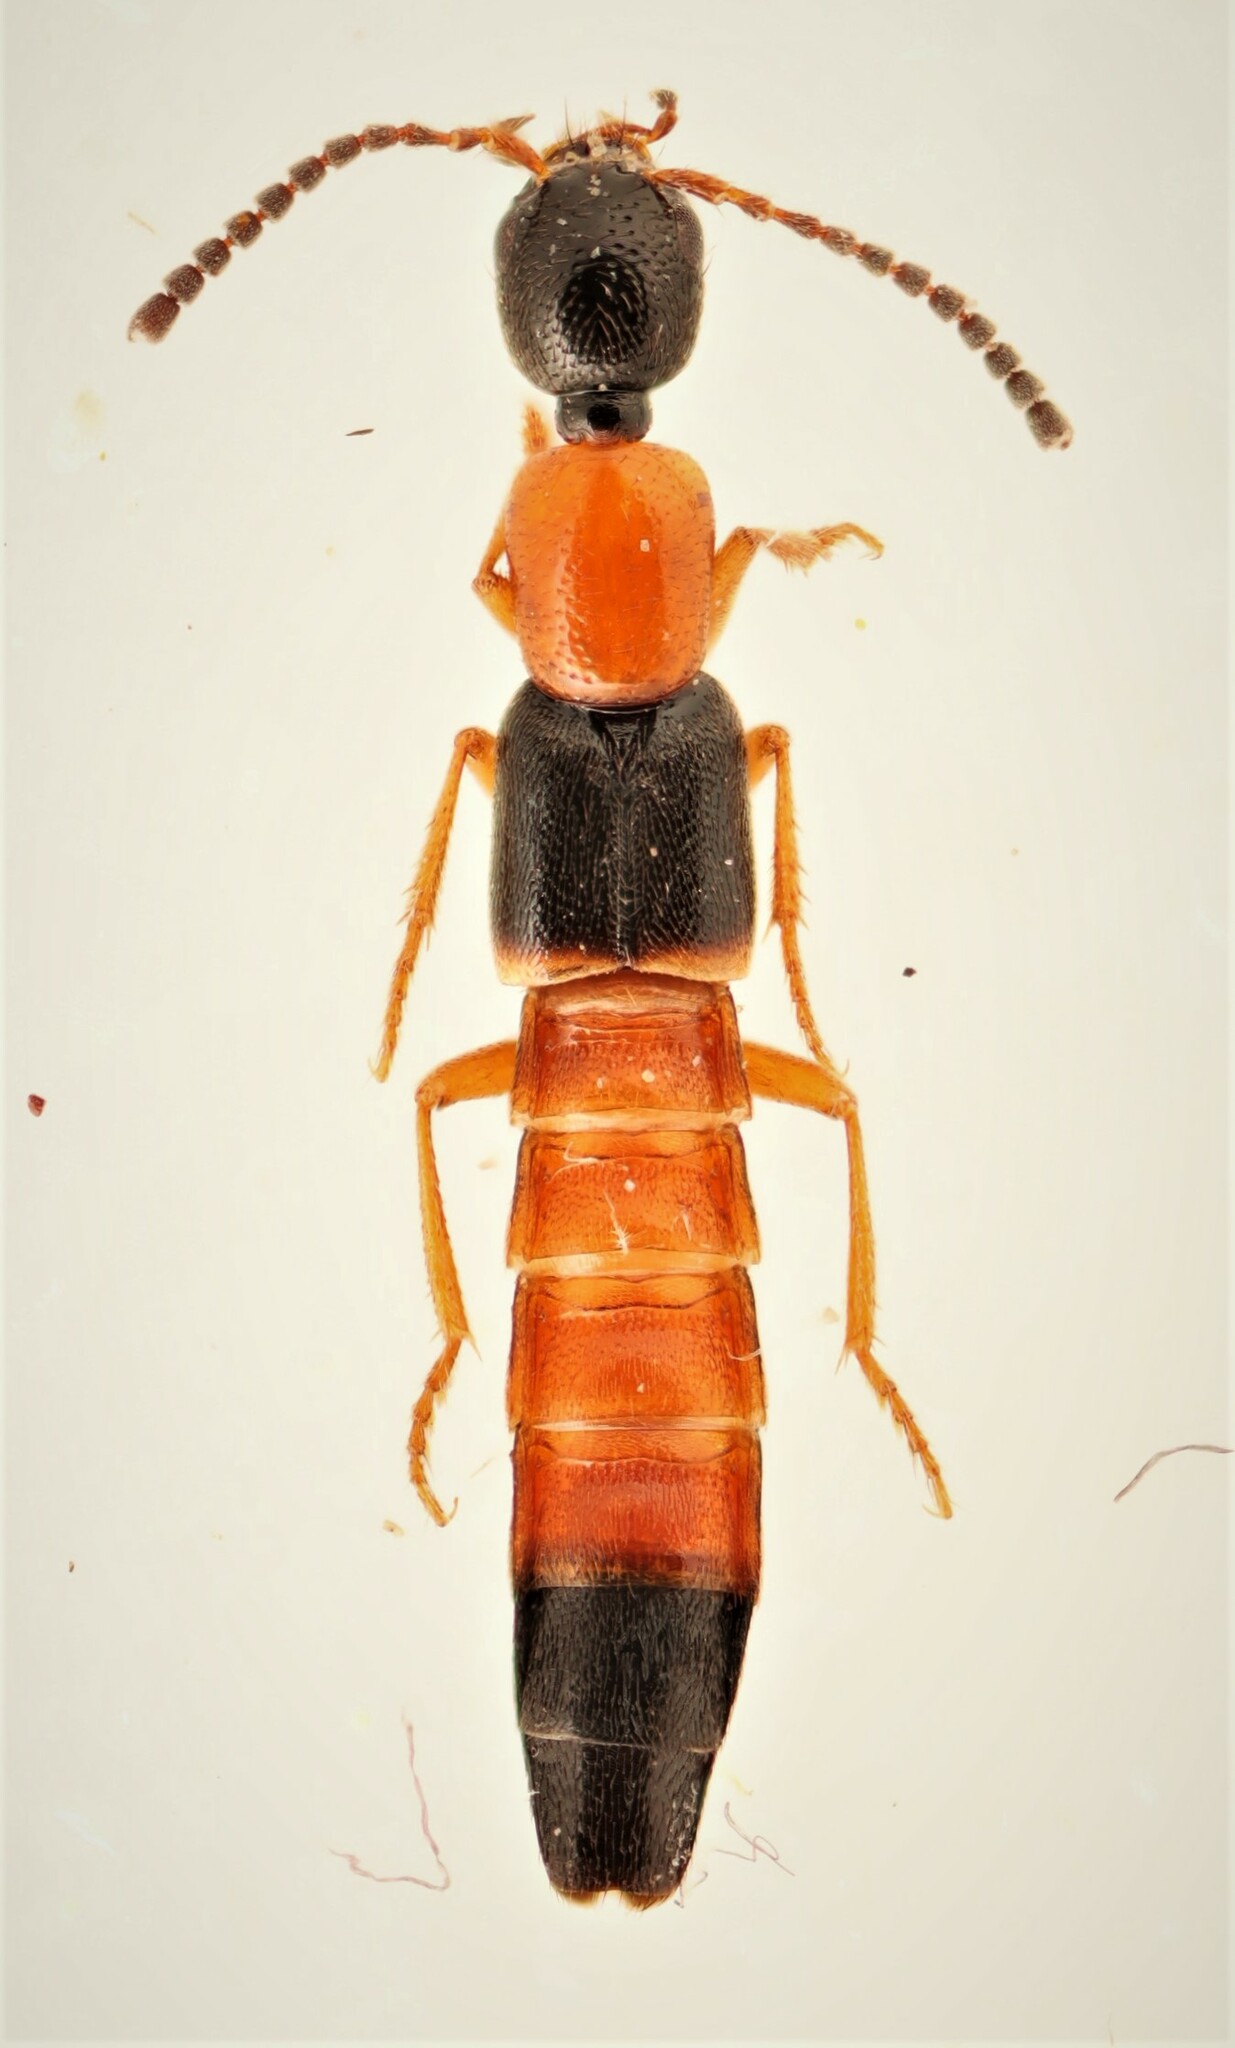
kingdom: Animalia
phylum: Arthropoda
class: Insecta
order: Coleoptera
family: Staphylinidae
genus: Neobisnius
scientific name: Neobisnius jucundus
